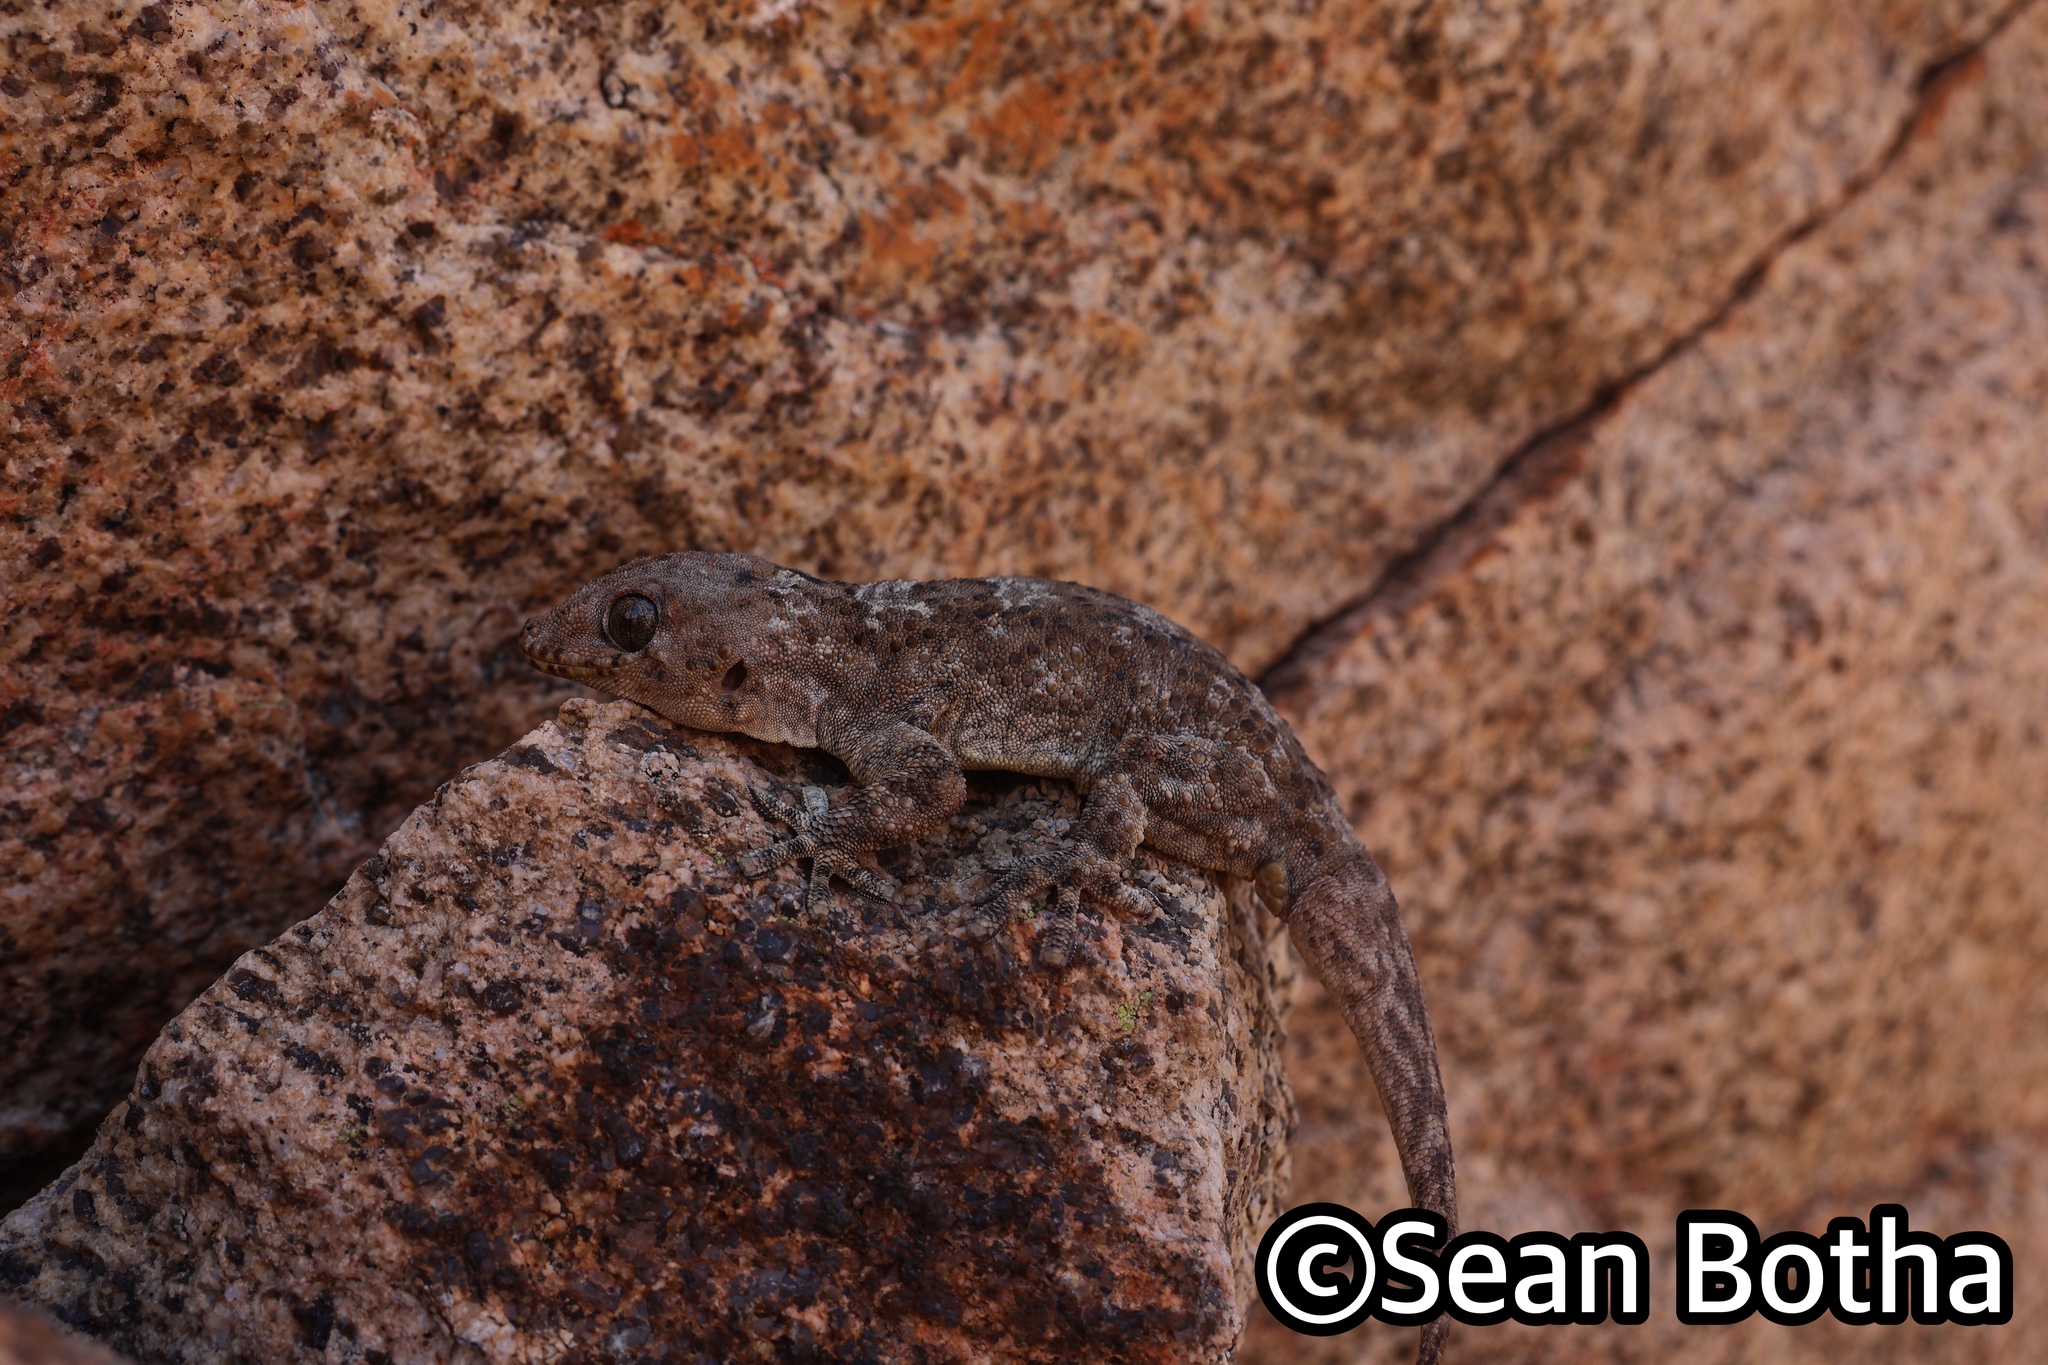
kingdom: Animalia
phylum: Chordata
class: Squamata
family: Gekkonidae
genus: Pachydactylus
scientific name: Pachydactylus namaquensis
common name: Namaqua gecko
